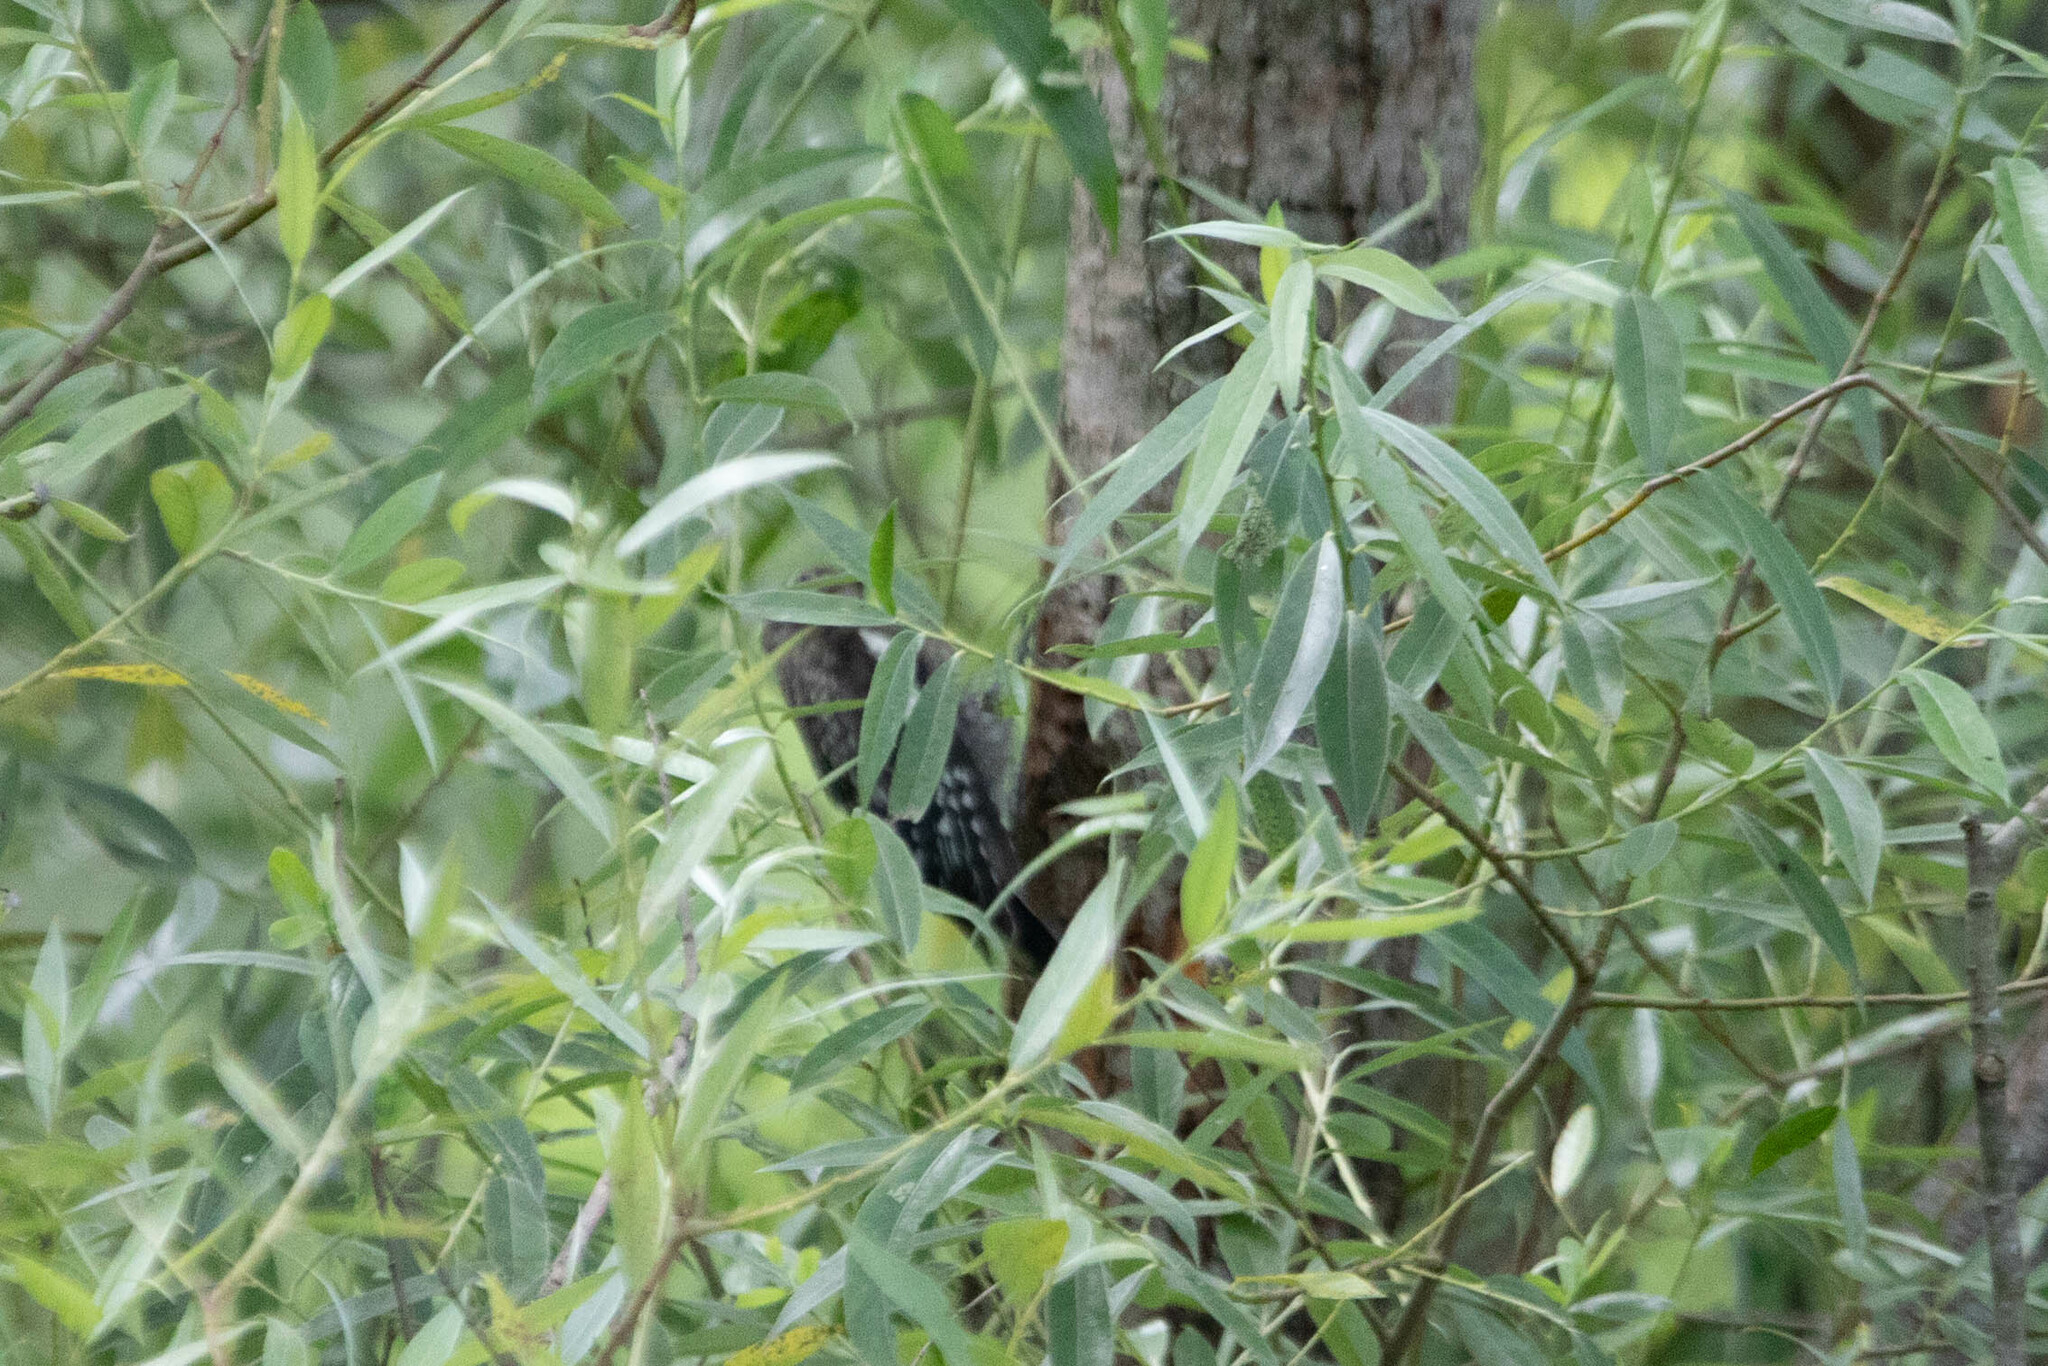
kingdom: Animalia
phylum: Chordata
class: Aves
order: Piciformes
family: Picidae
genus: Sphyrapicus
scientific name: Sphyrapicus varius
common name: Yellow-bellied sapsucker
